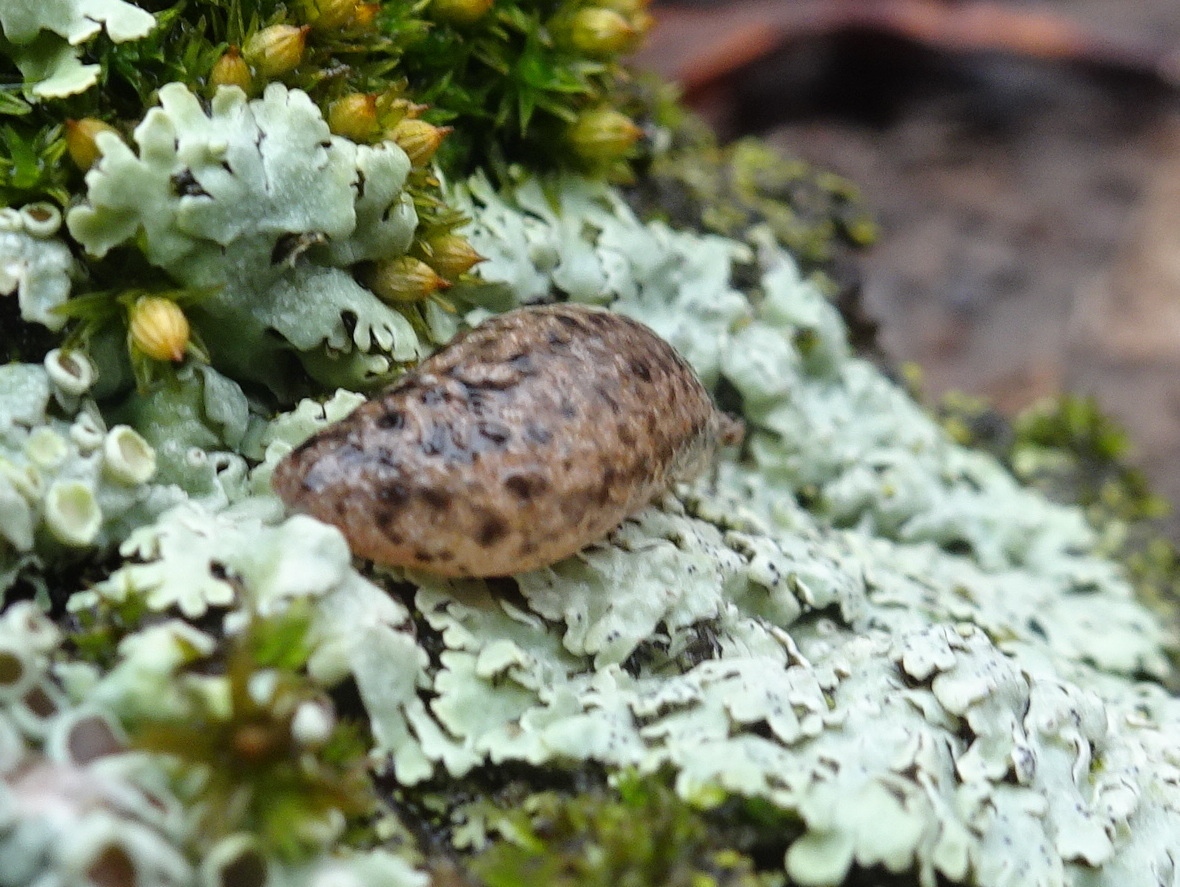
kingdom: Animalia
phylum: Mollusca
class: Gastropoda
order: Stylommatophora
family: Philomycidae
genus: Philomycus
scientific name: Philomycus carolinianus
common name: Carolina mantleslug
